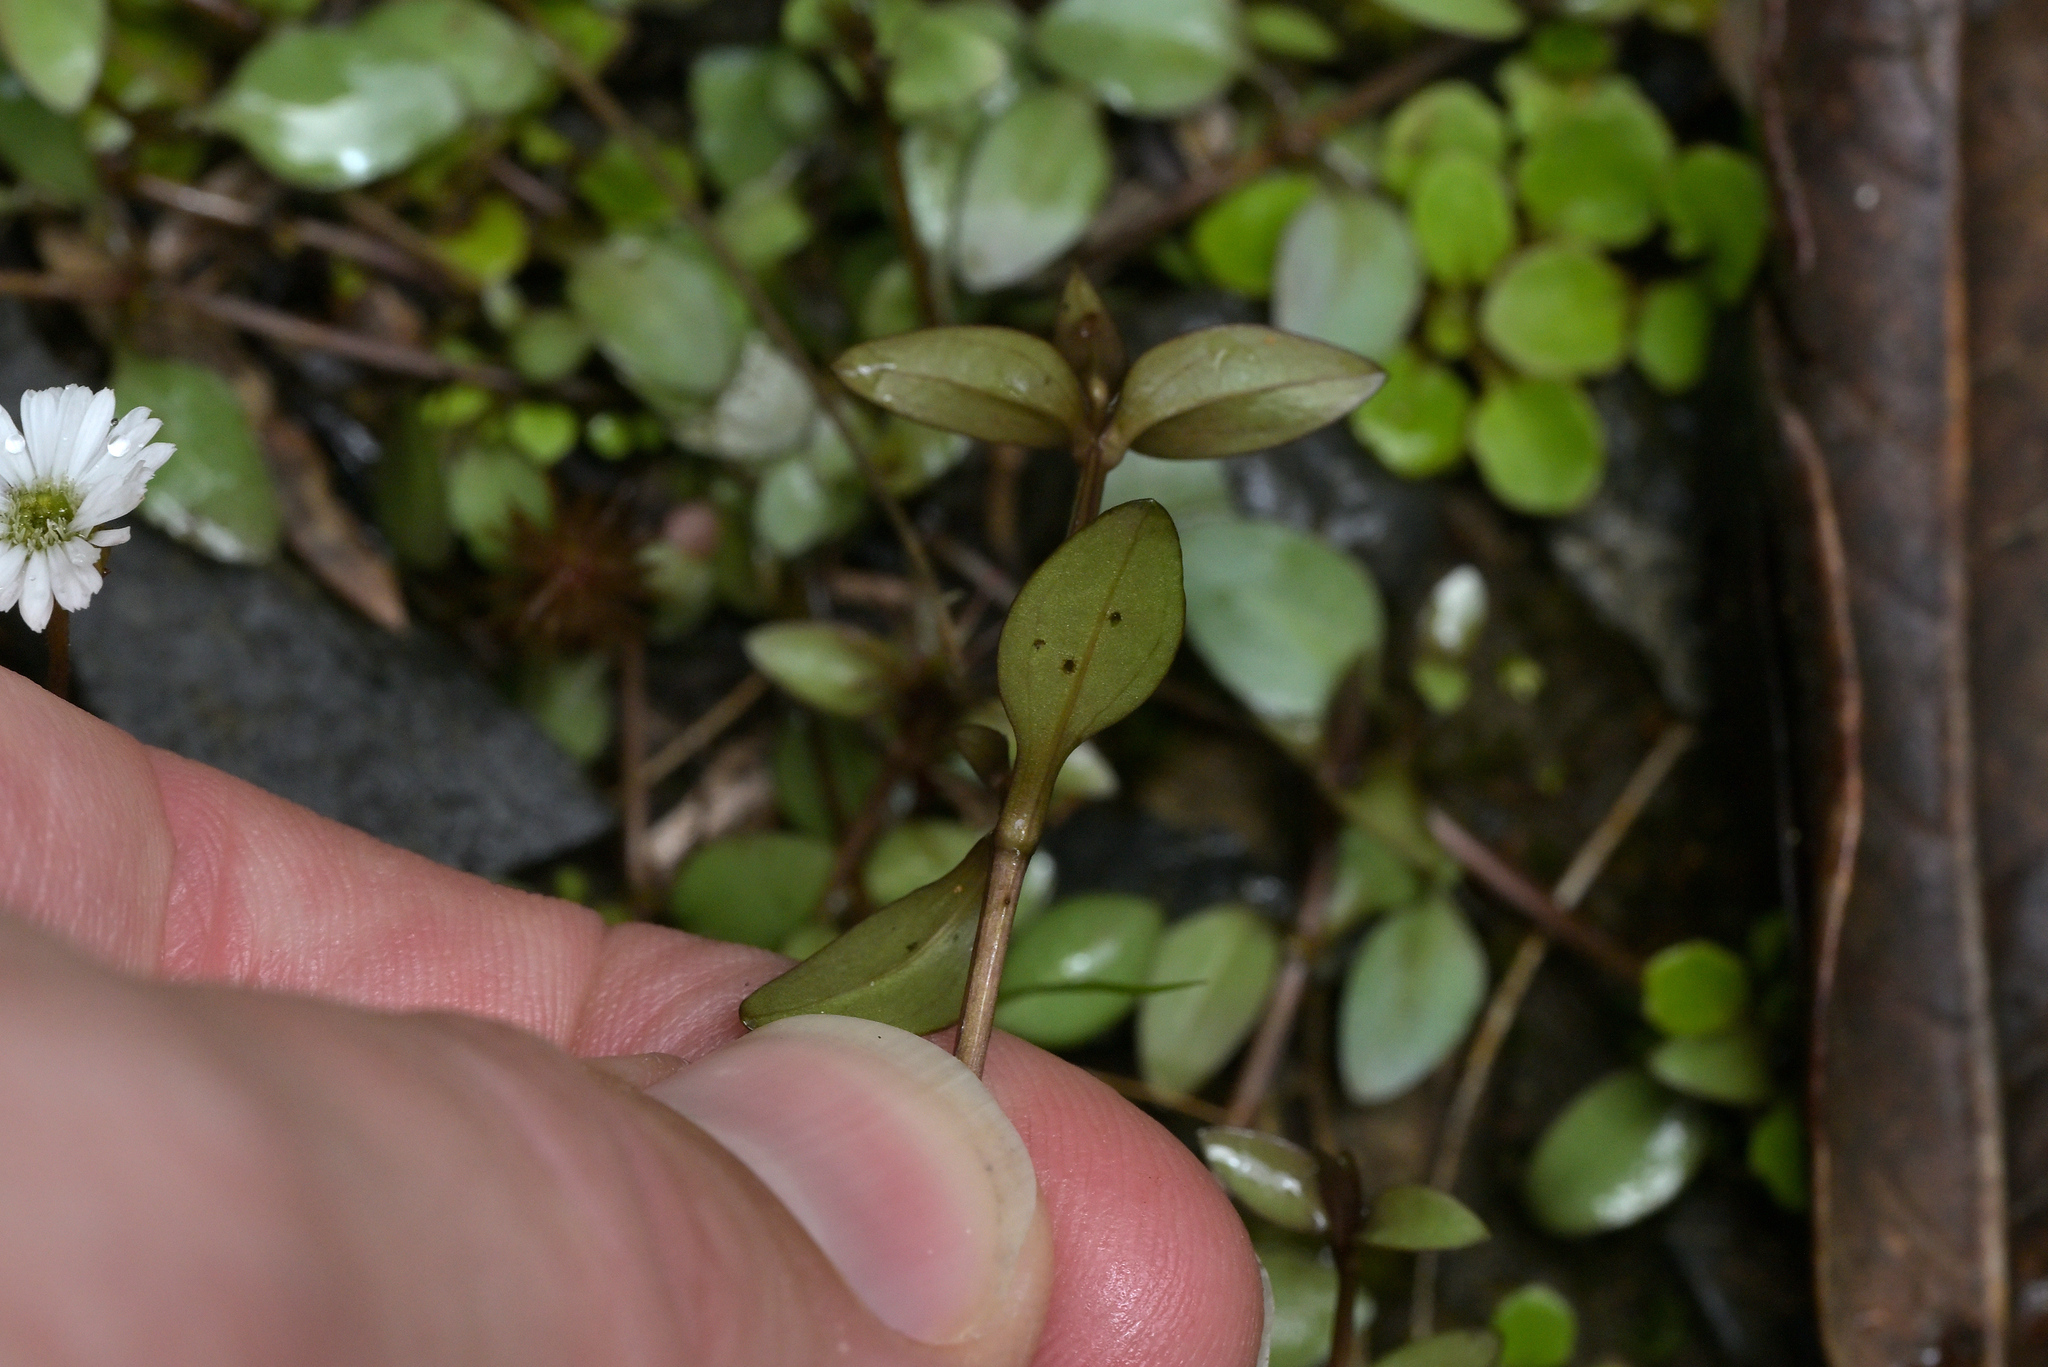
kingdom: Plantae
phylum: Tracheophyta
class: Magnoliopsida
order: Gentianales
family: Gentianaceae
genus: Gentianella
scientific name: Gentianella chathamica
